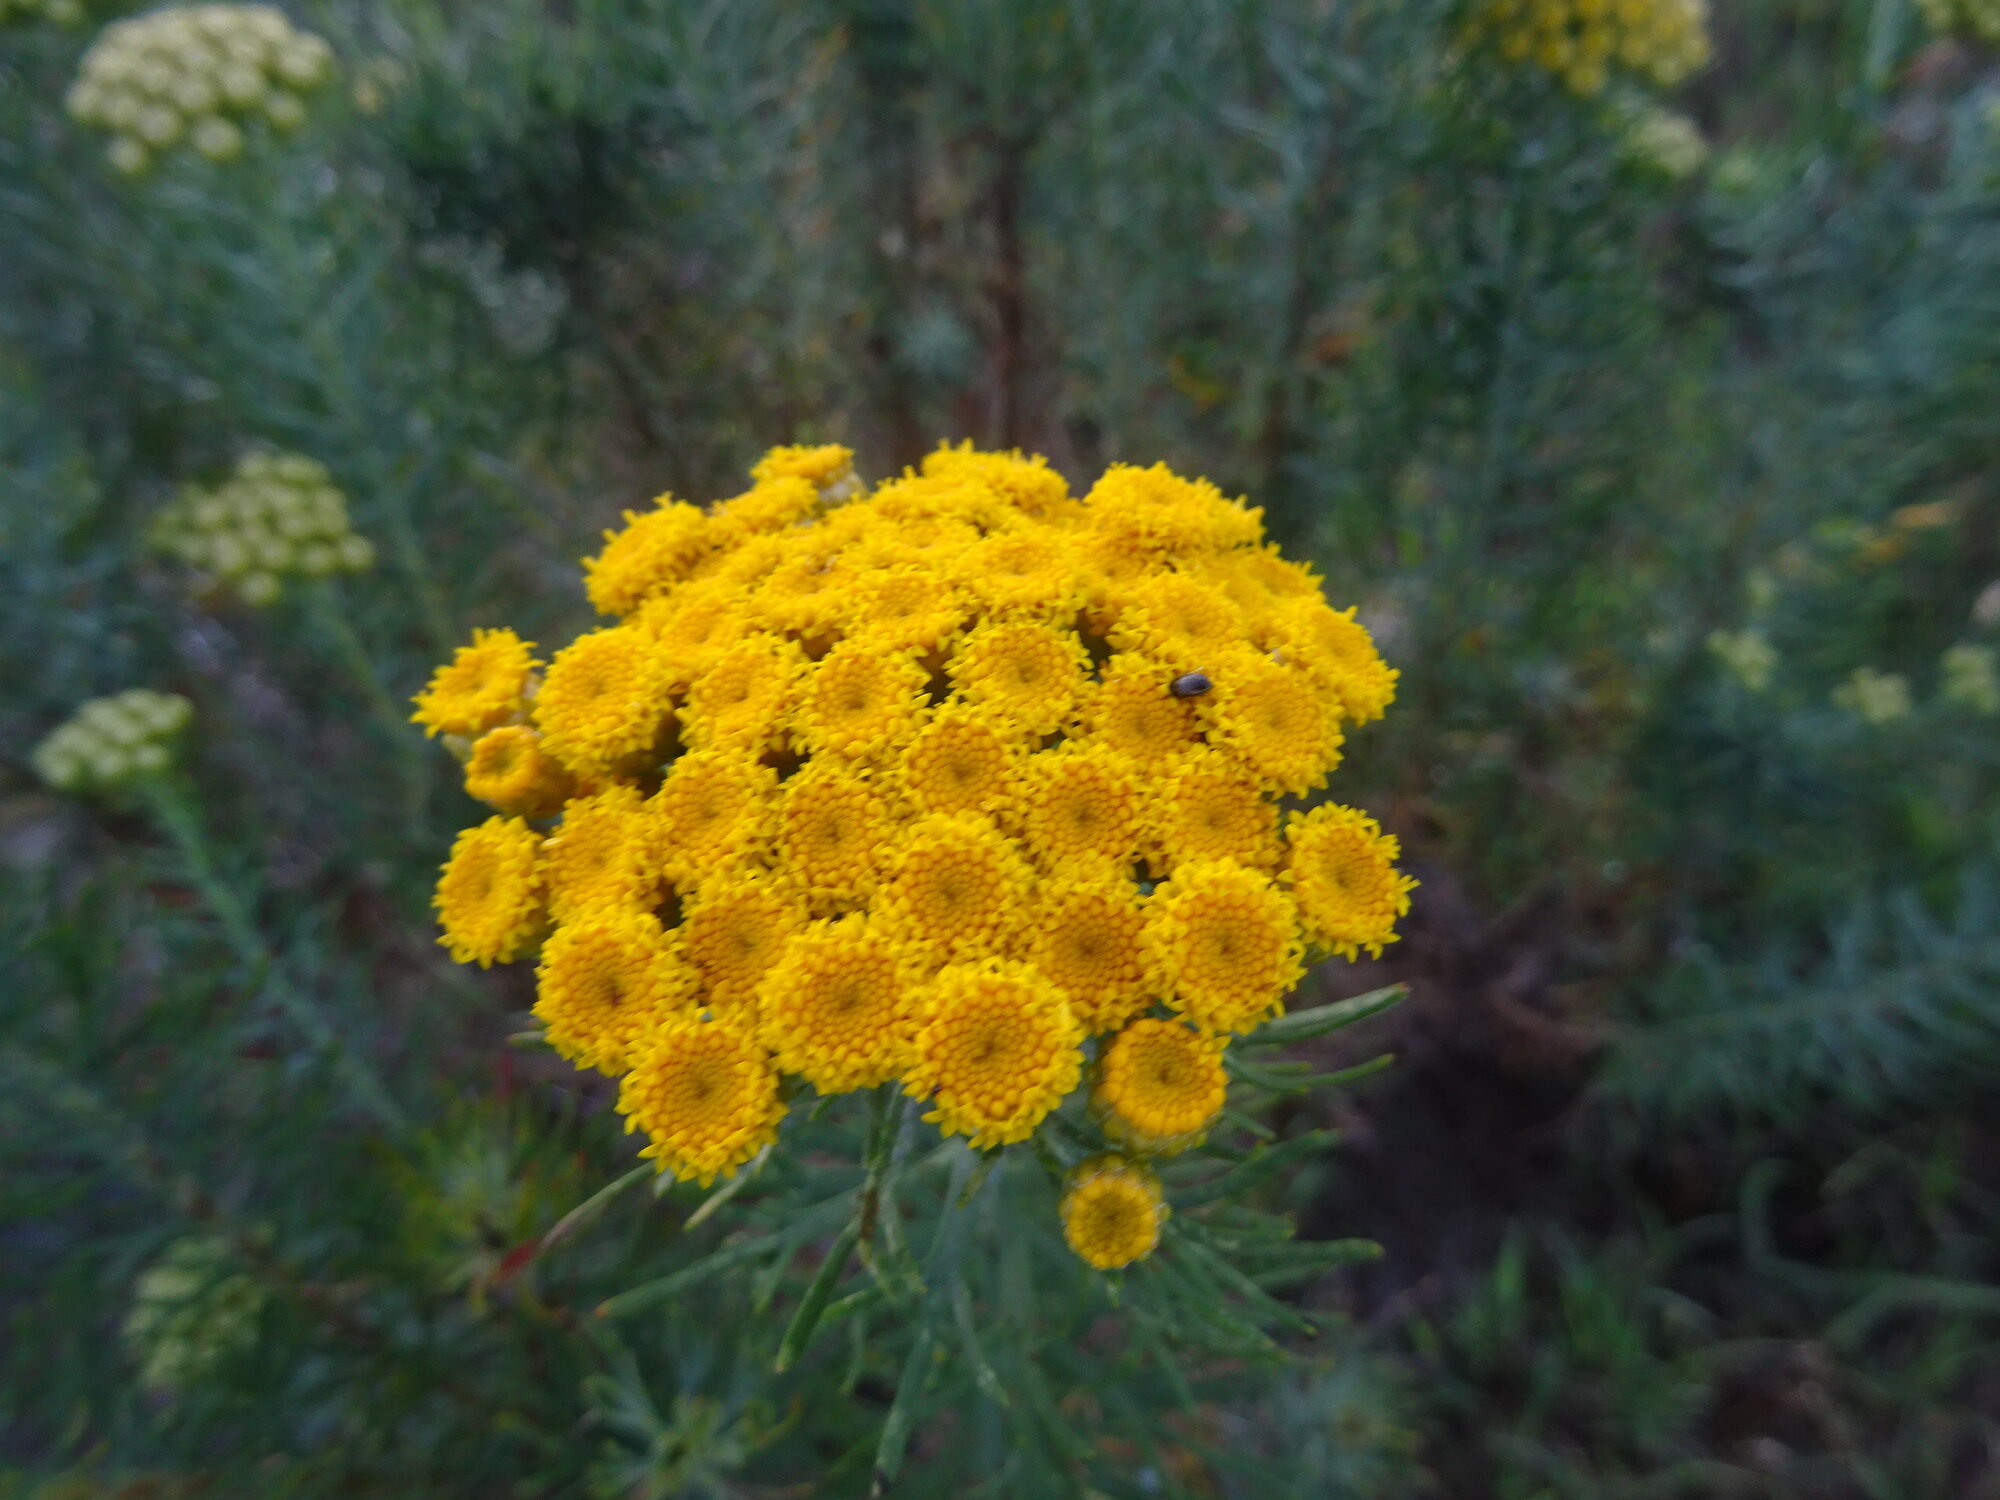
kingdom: Plantae
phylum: Tracheophyta
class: Magnoliopsida
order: Asterales
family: Asteraceae
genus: Athanasia
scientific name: Athanasia crithmifolia
